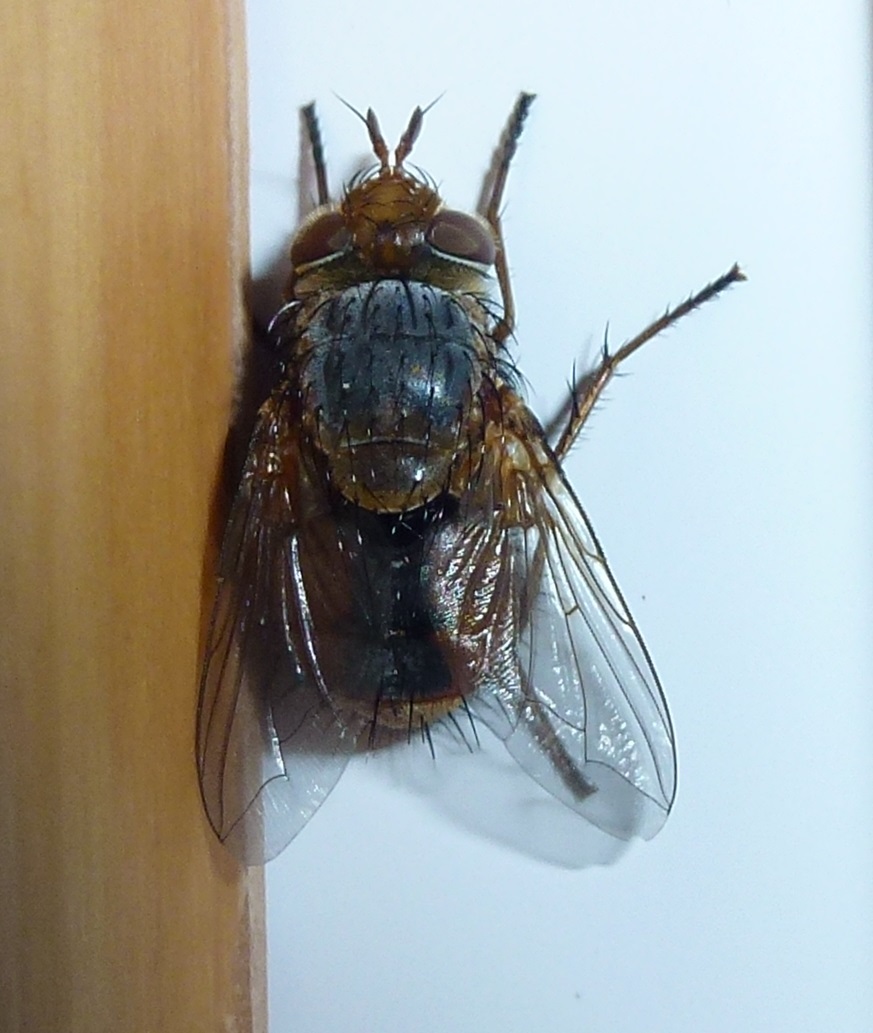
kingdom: Animalia
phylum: Arthropoda
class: Insecta
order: Diptera
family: Tachinidae
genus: Chaetophthalmus
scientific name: Chaetophthalmus bicolor
